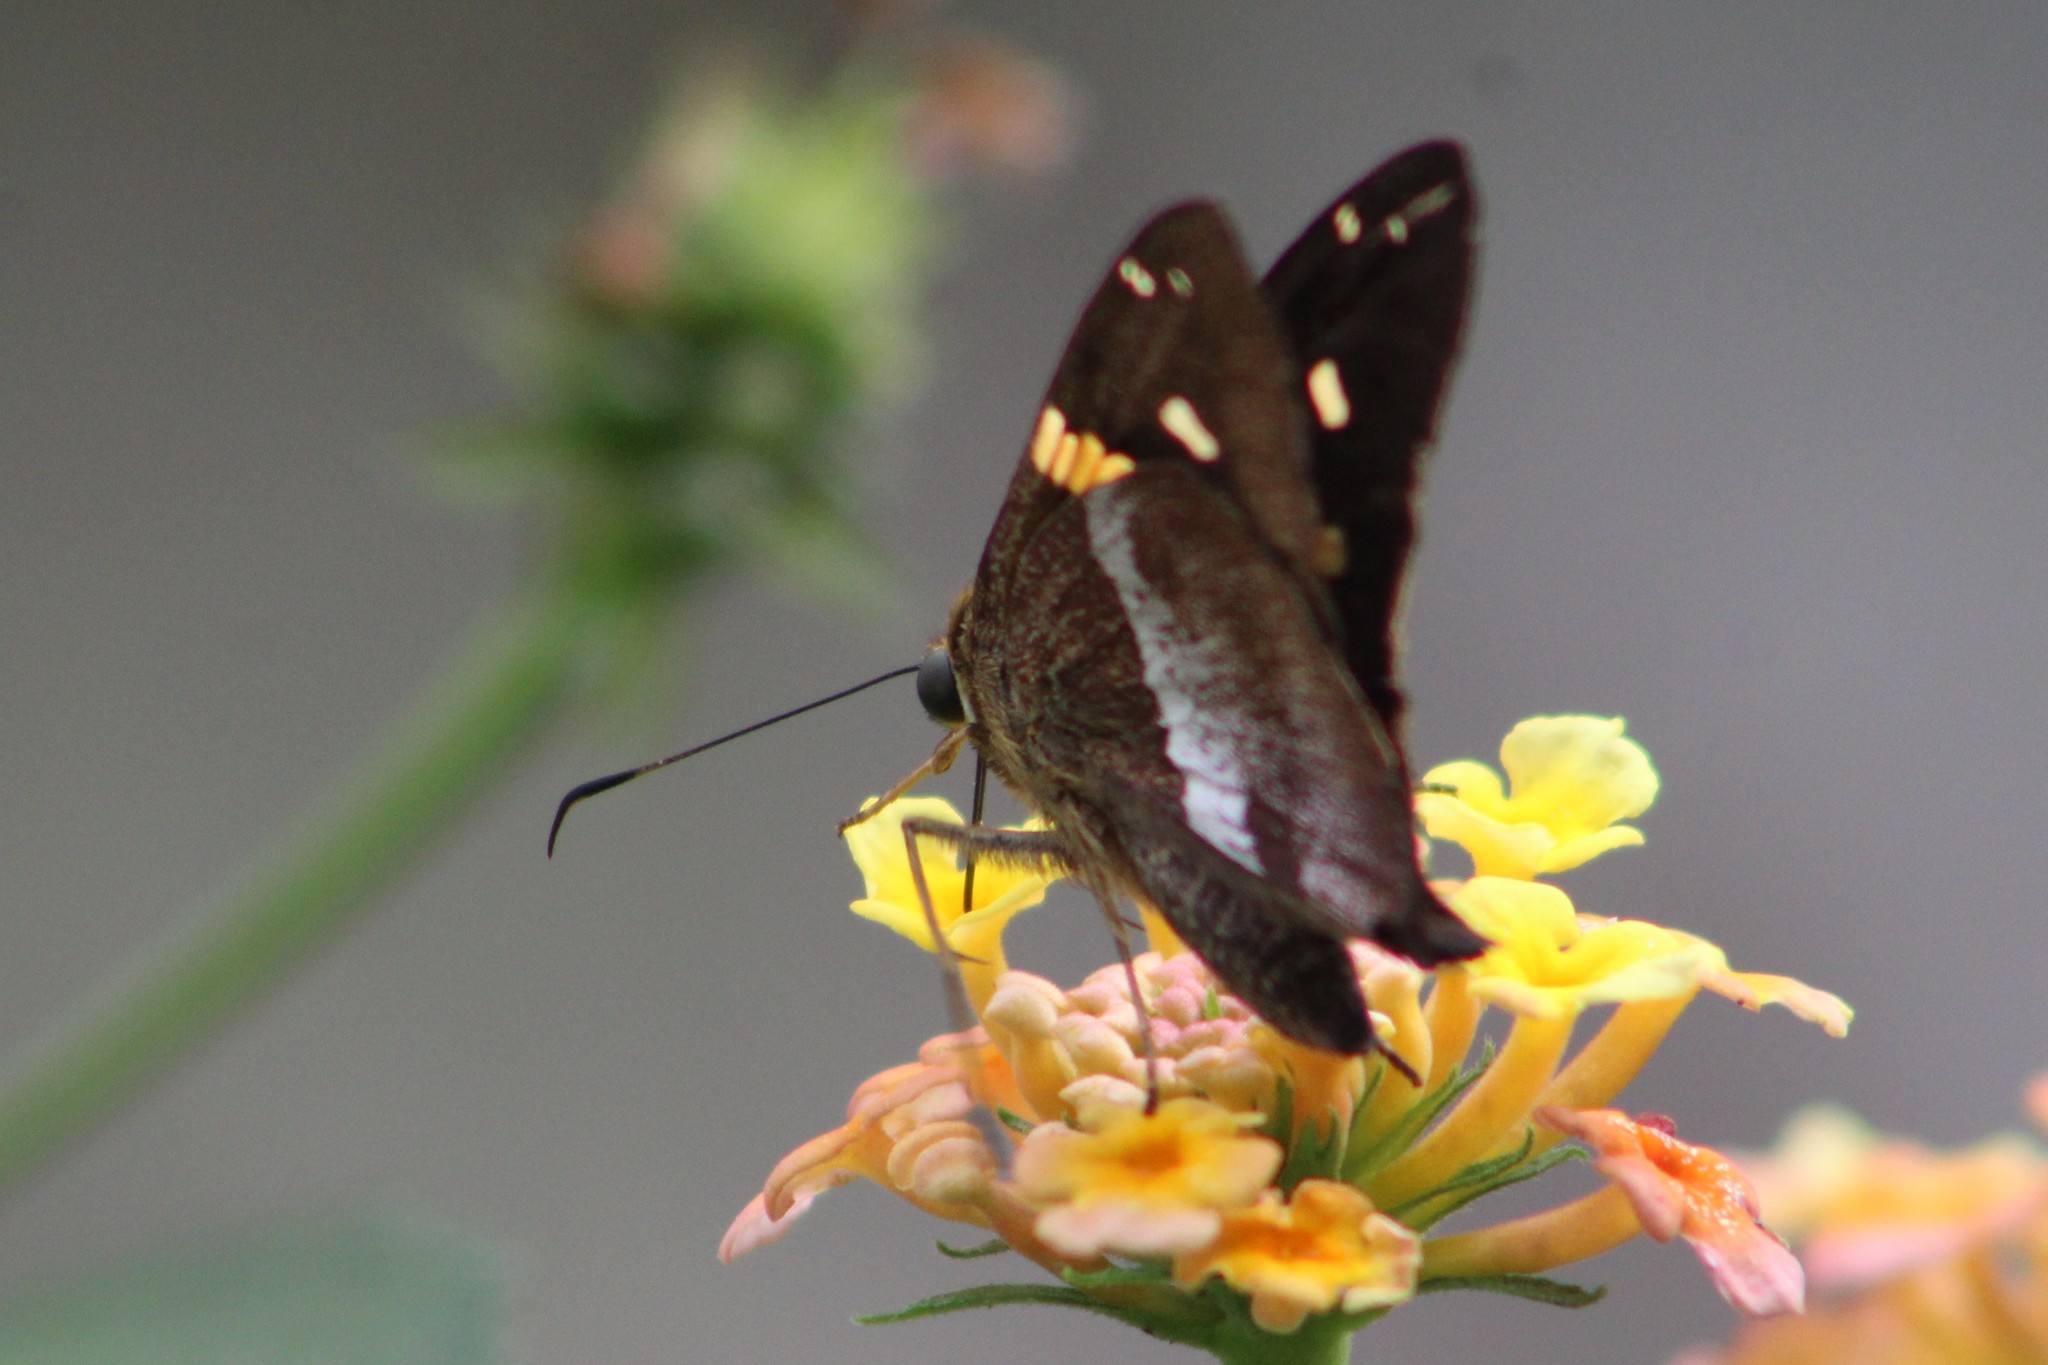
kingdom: Animalia
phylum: Arthropoda
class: Insecta
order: Lepidoptera
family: Hesperiidae
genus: Aguna
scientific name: Aguna asander
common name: Gold-spotted aguna
